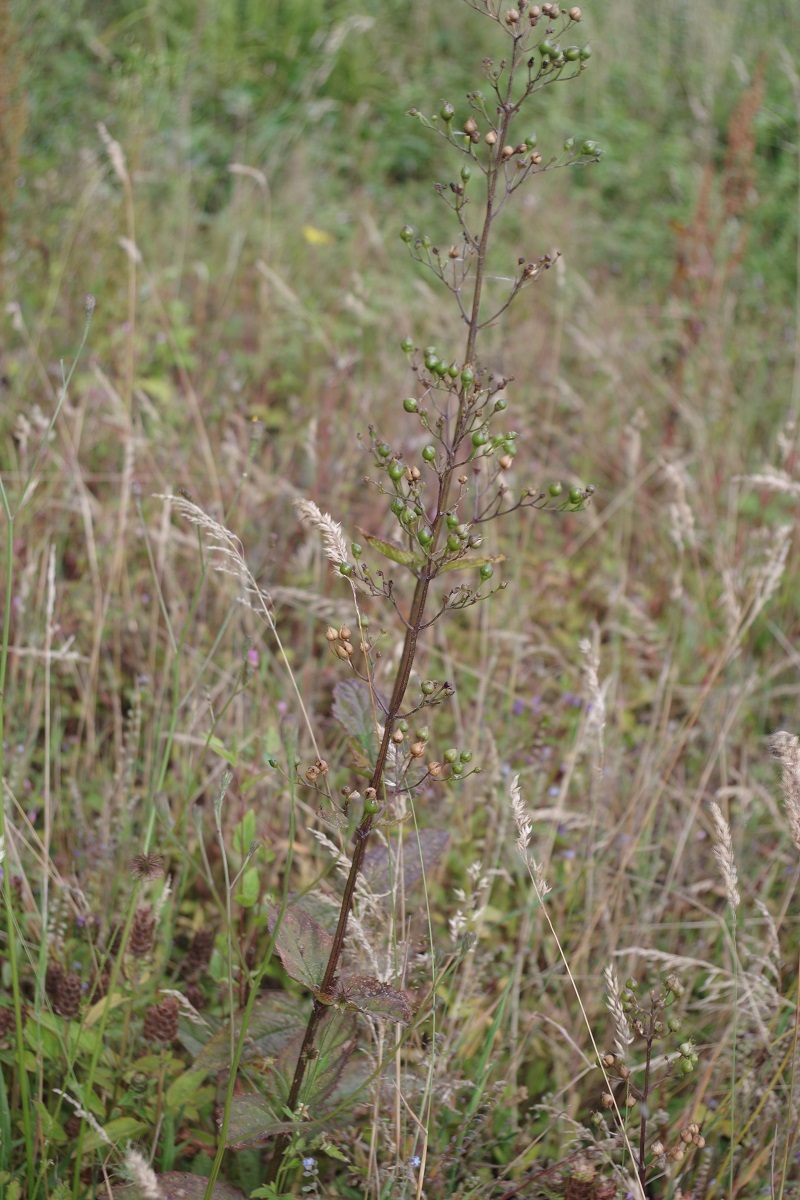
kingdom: Plantae
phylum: Tracheophyta
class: Magnoliopsida
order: Lamiales
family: Scrophulariaceae
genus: Scrophularia
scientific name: Scrophularia nodosa
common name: Common figwort
